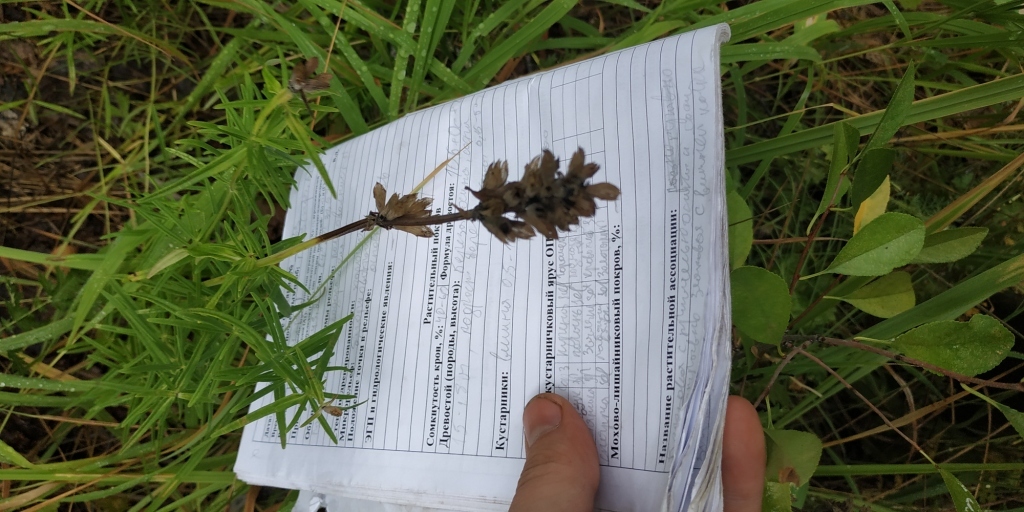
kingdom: Plantae
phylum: Tracheophyta
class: Magnoliopsida
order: Lamiales
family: Lamiaceae
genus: Dracocephalum
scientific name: Dracocephalum ruyschiana
